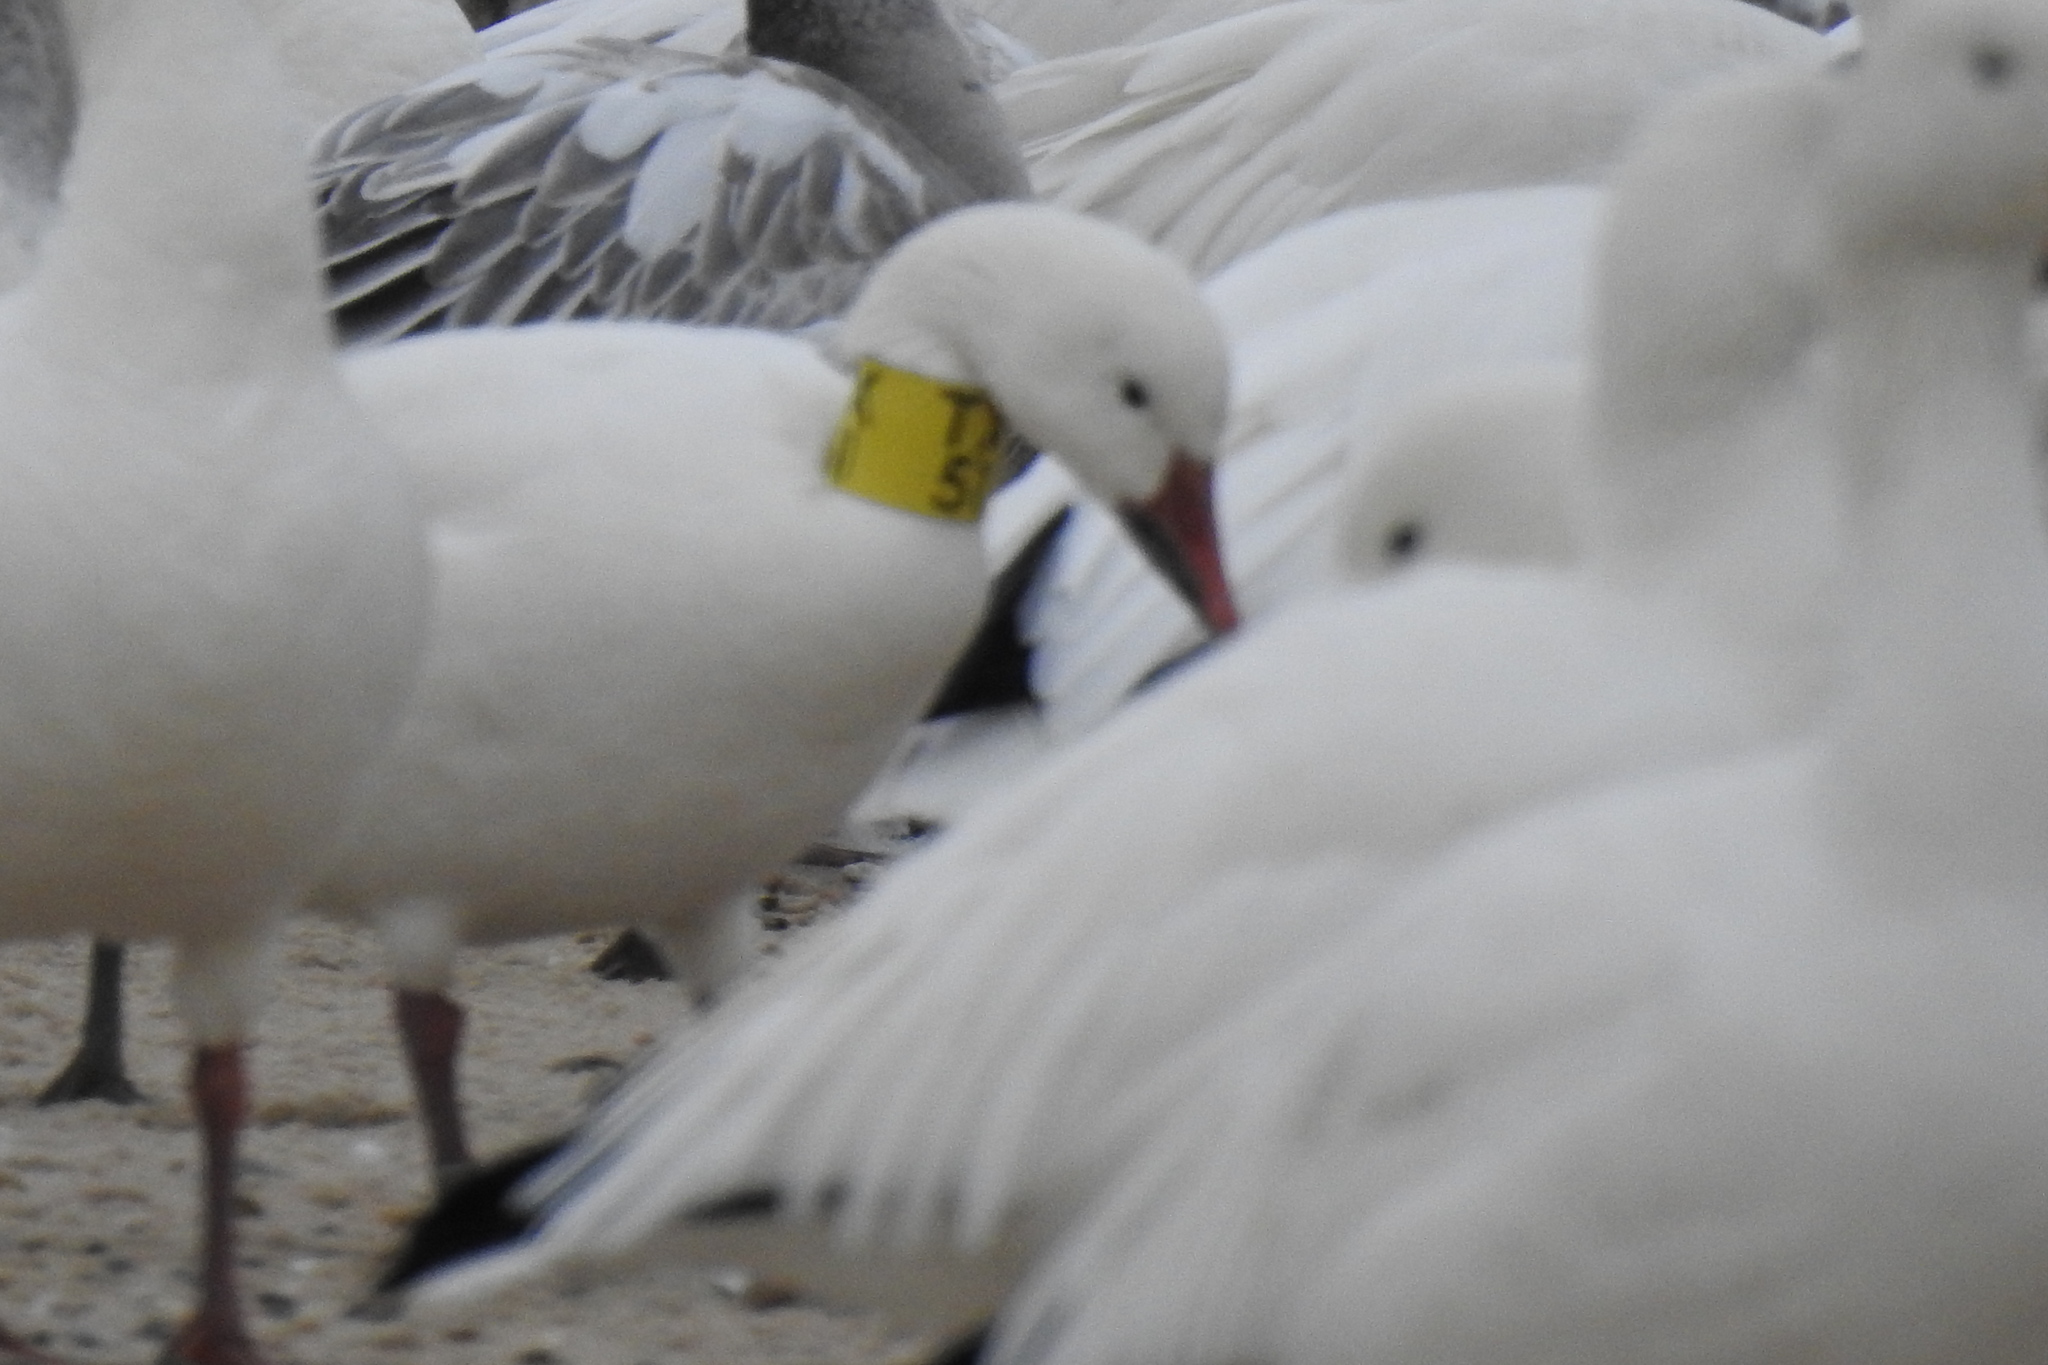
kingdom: Animalia
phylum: Chordata
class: Aves
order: Anseriformes
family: Anatidae
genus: Anser
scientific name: Anser caerulescens
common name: Snow goose
